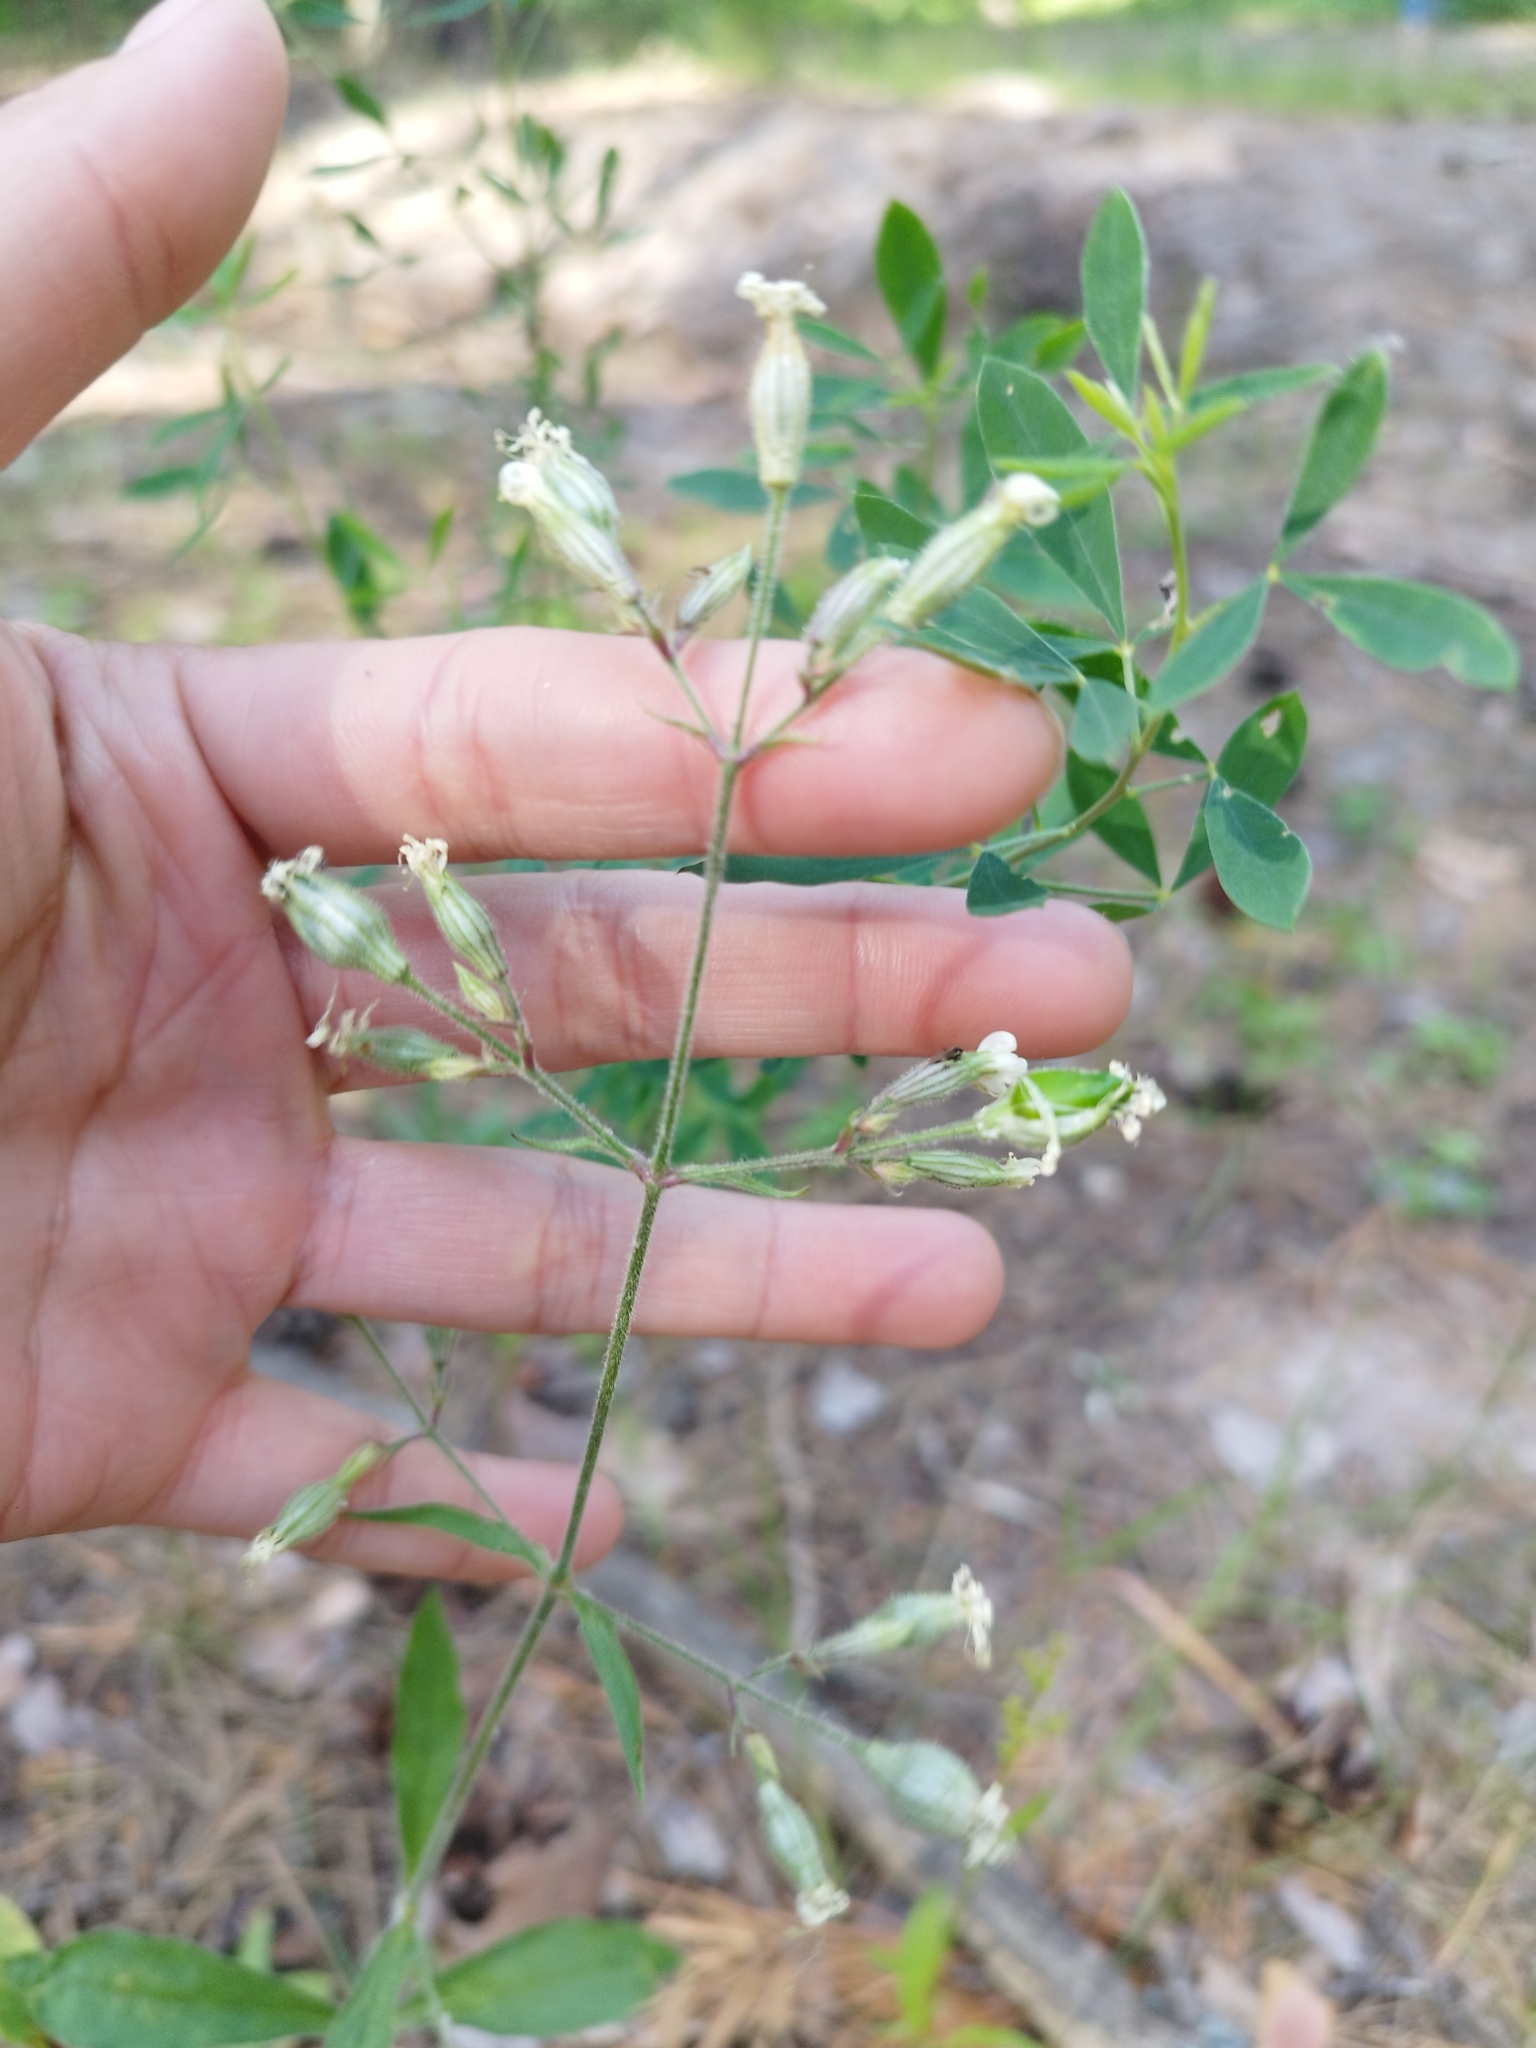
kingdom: Plantae
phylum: Tracheophyta
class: Magnoliopsida
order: Caryophyllales
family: Caryophyllaceae
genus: Silene
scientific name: Silene nutans
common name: Nottingham catchfly
